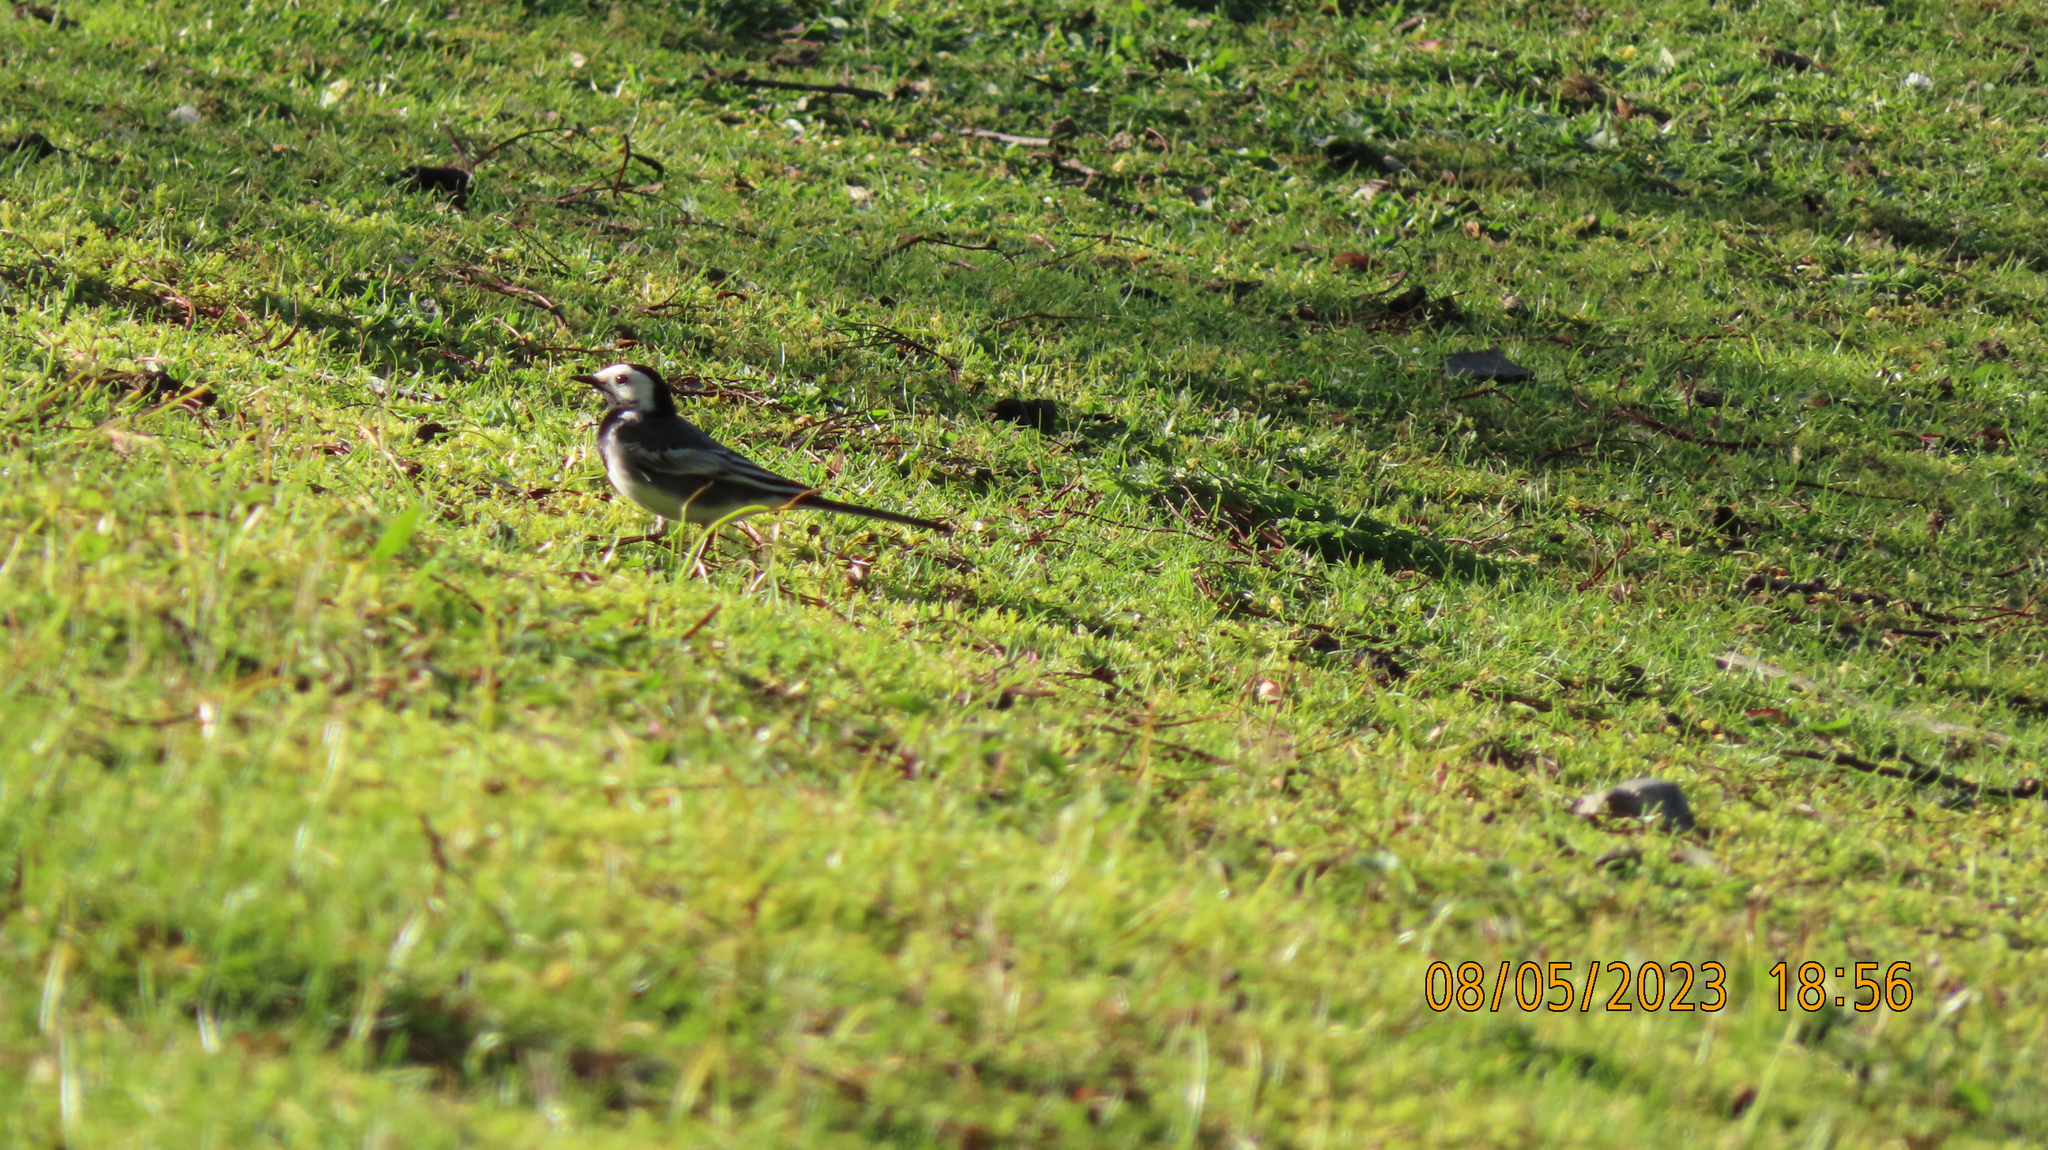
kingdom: Animalia
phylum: Chordata
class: Aves
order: Passeriformes
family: Motacillidae
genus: Motacilla
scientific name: Motacilla alba
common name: White wagtail
